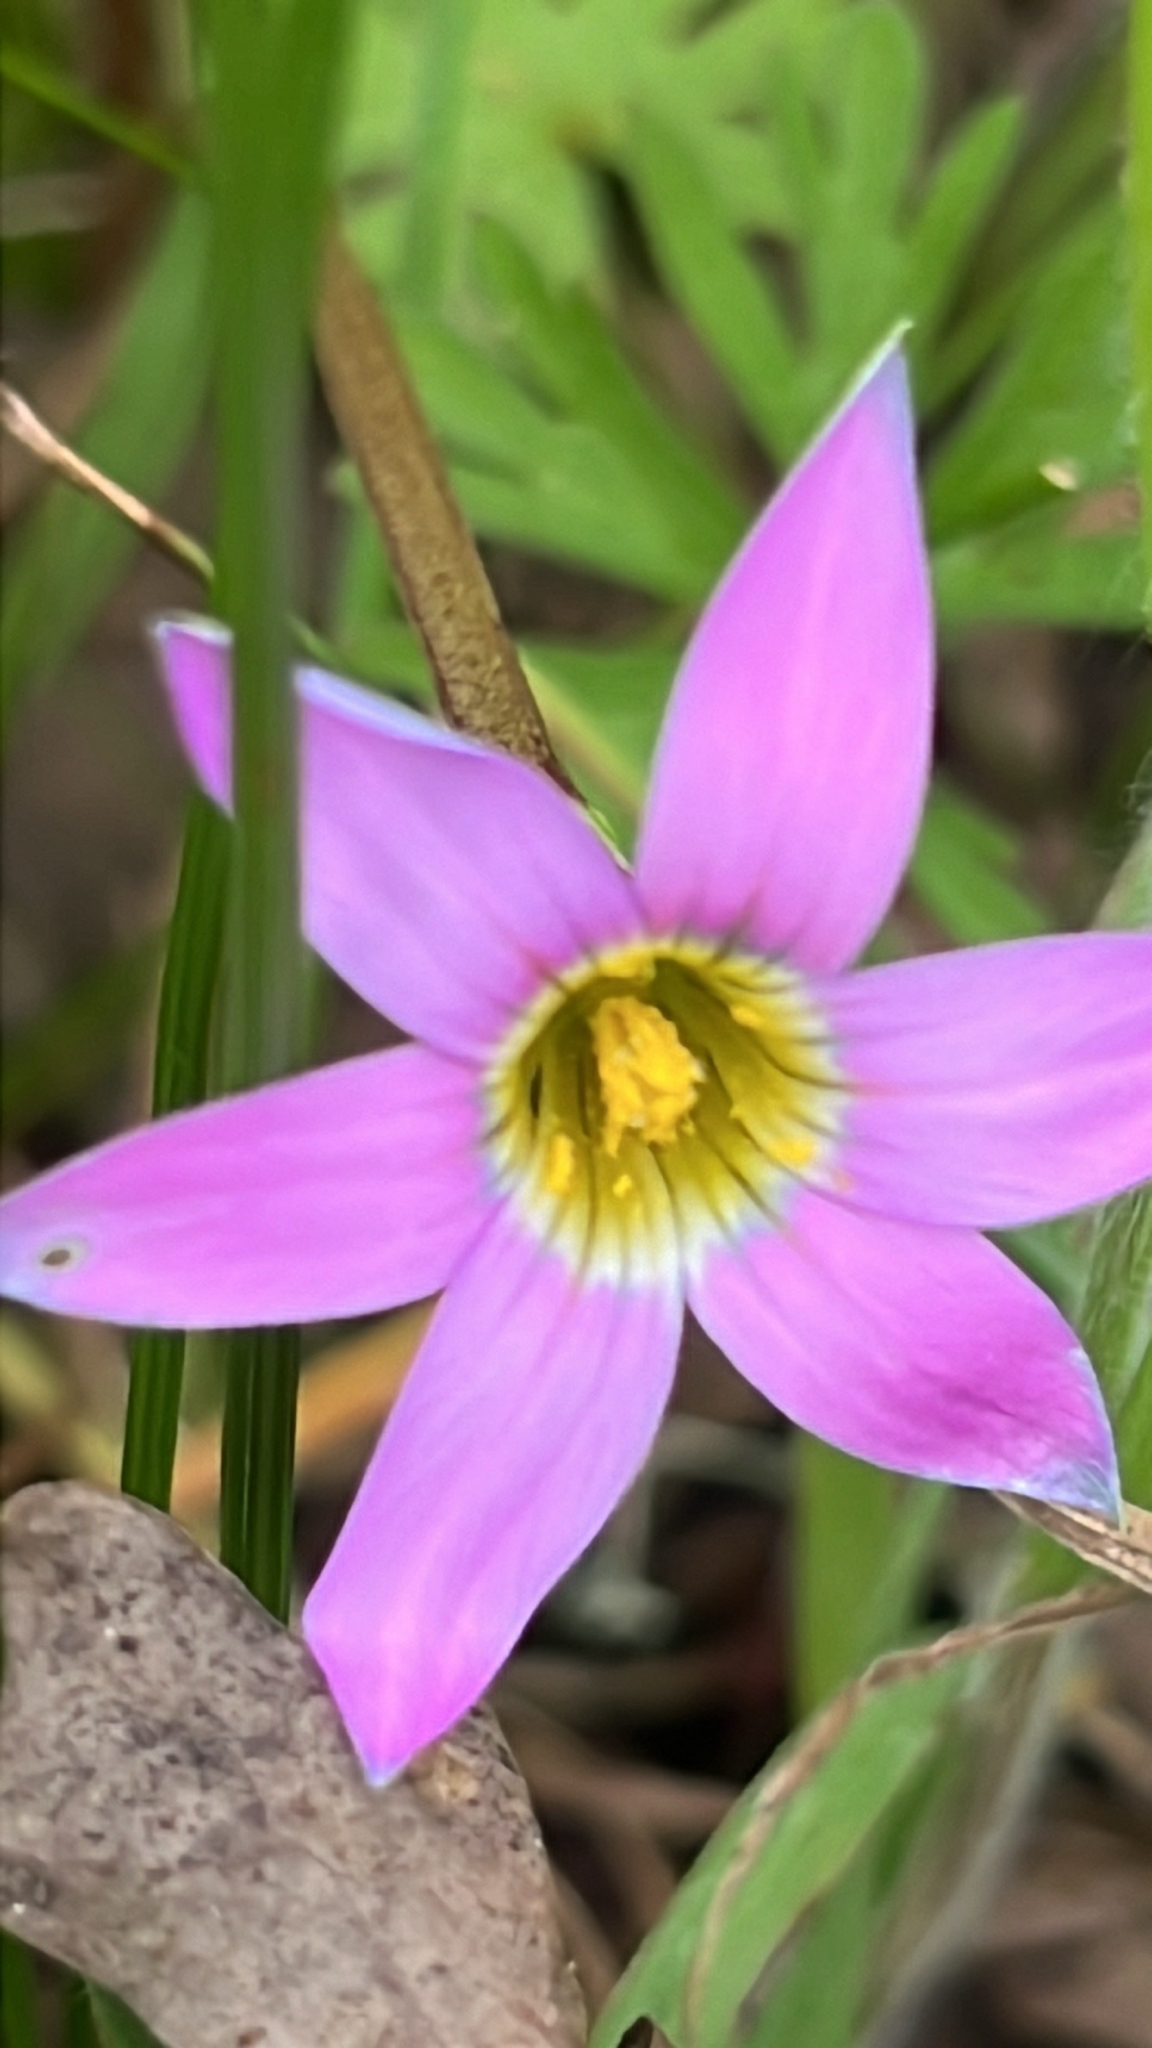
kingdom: Plantae
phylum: Tracheophyta
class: Liliopsida
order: Asparagales
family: Iridaceae
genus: Romulea
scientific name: Romulea rosea
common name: Oniongrass
